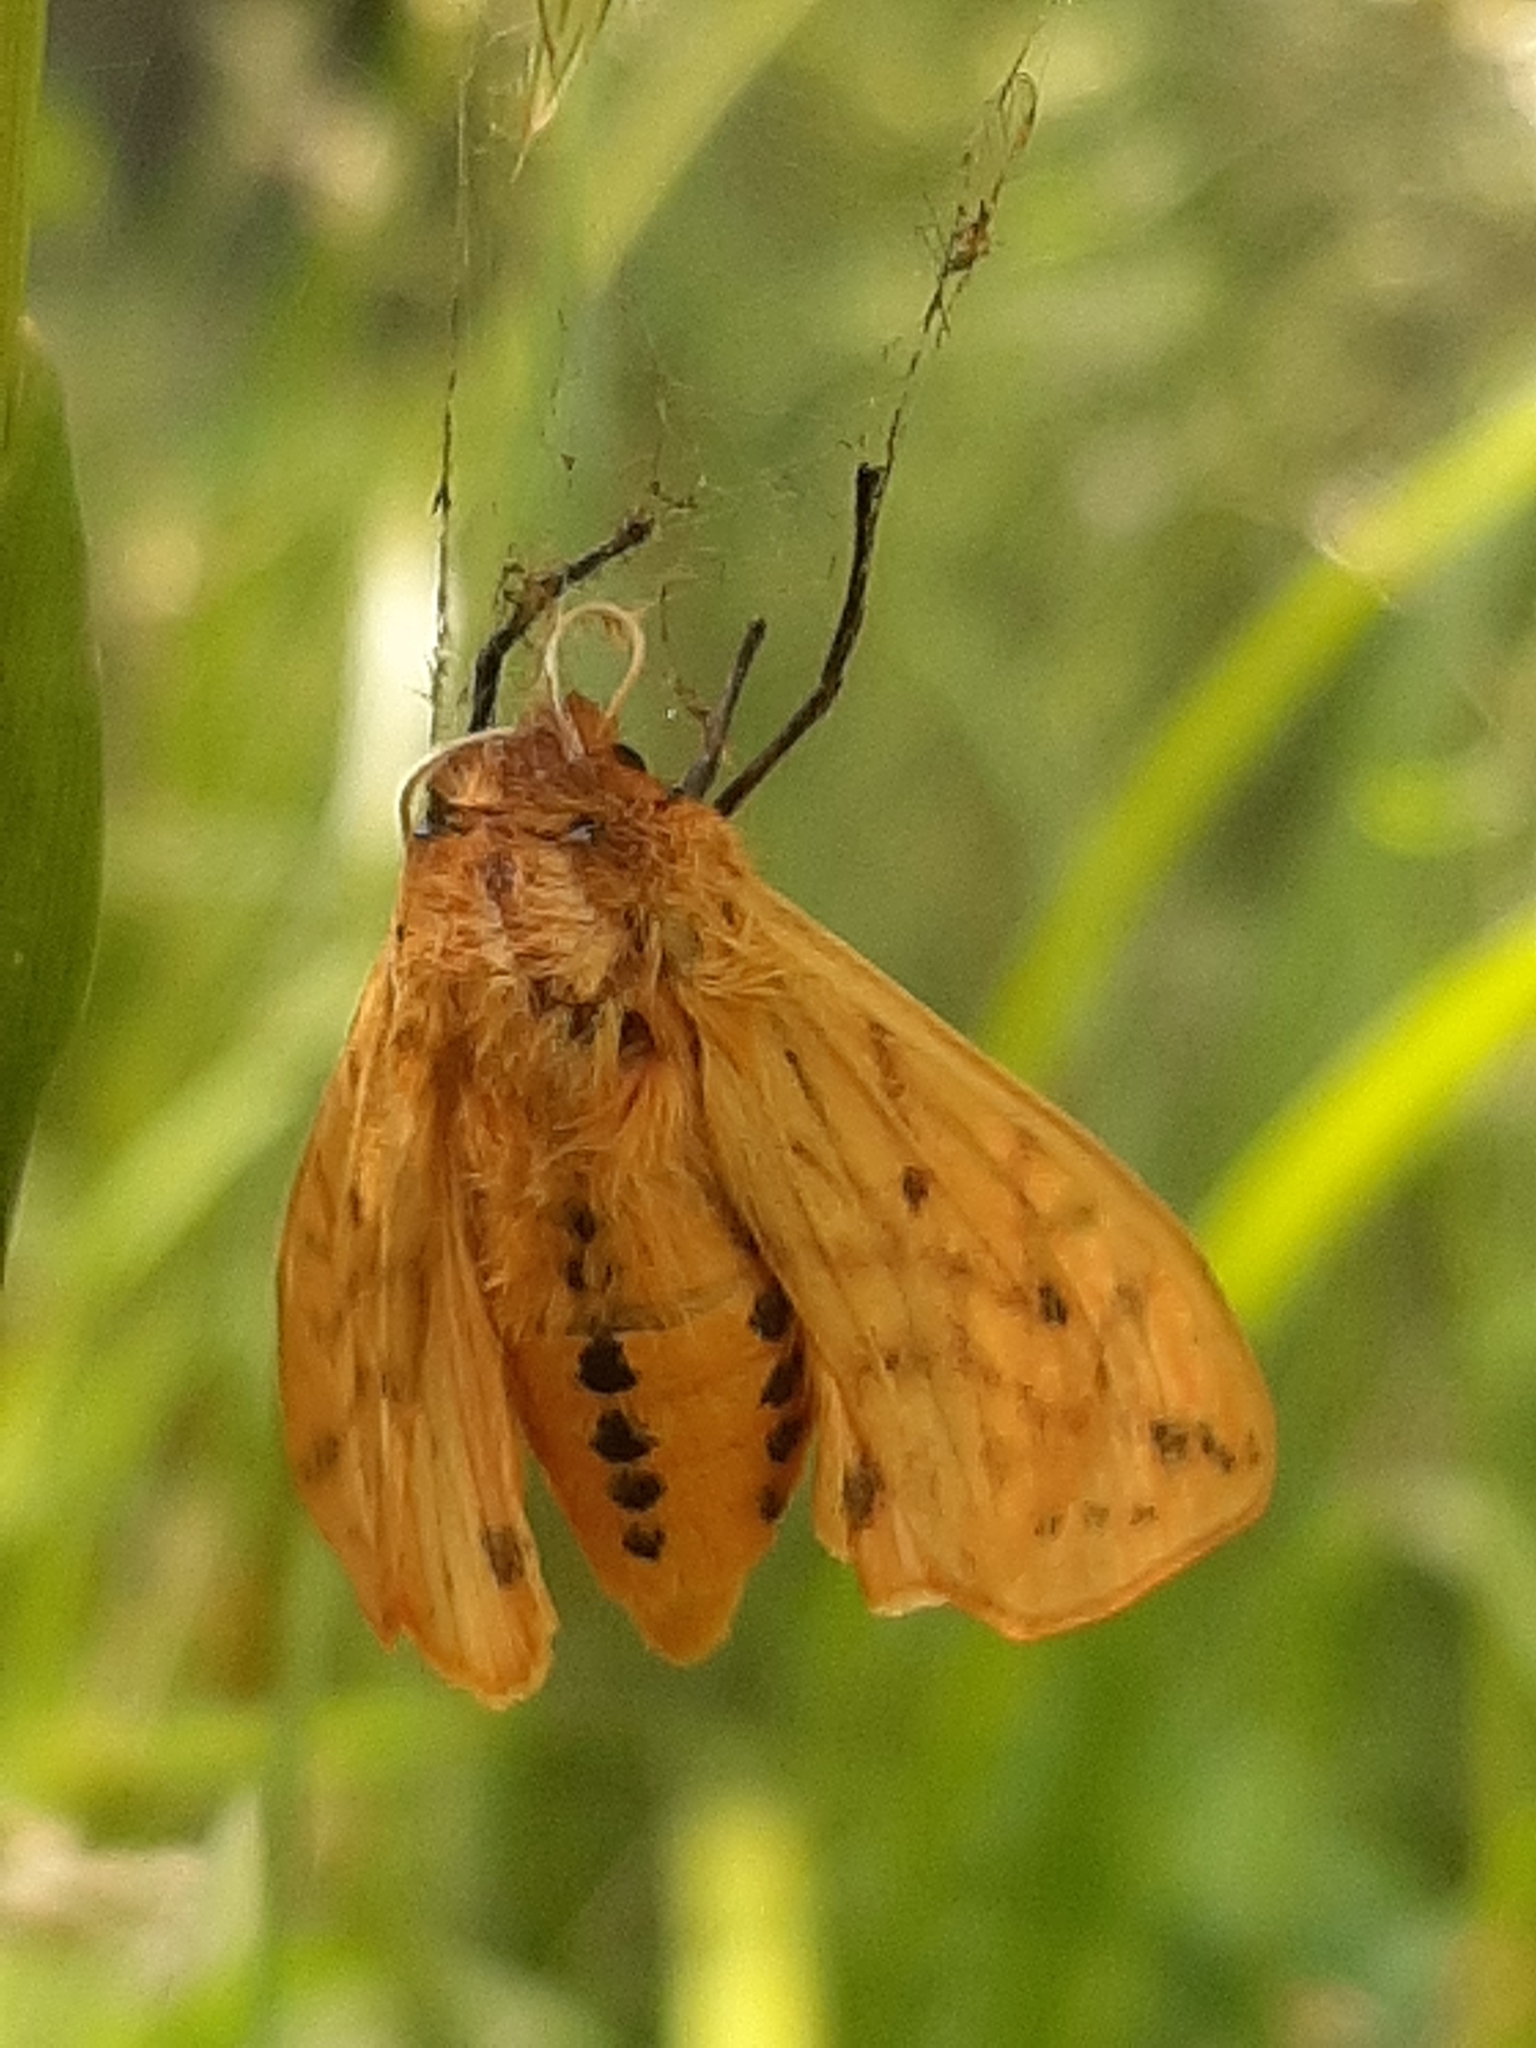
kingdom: Animalia
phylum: Arthropoda
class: Insecta
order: Lepidoptera
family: Erebidae
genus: Pyrrharctia
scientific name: Pyrrharctia isabella
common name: Isabella tiger moth
